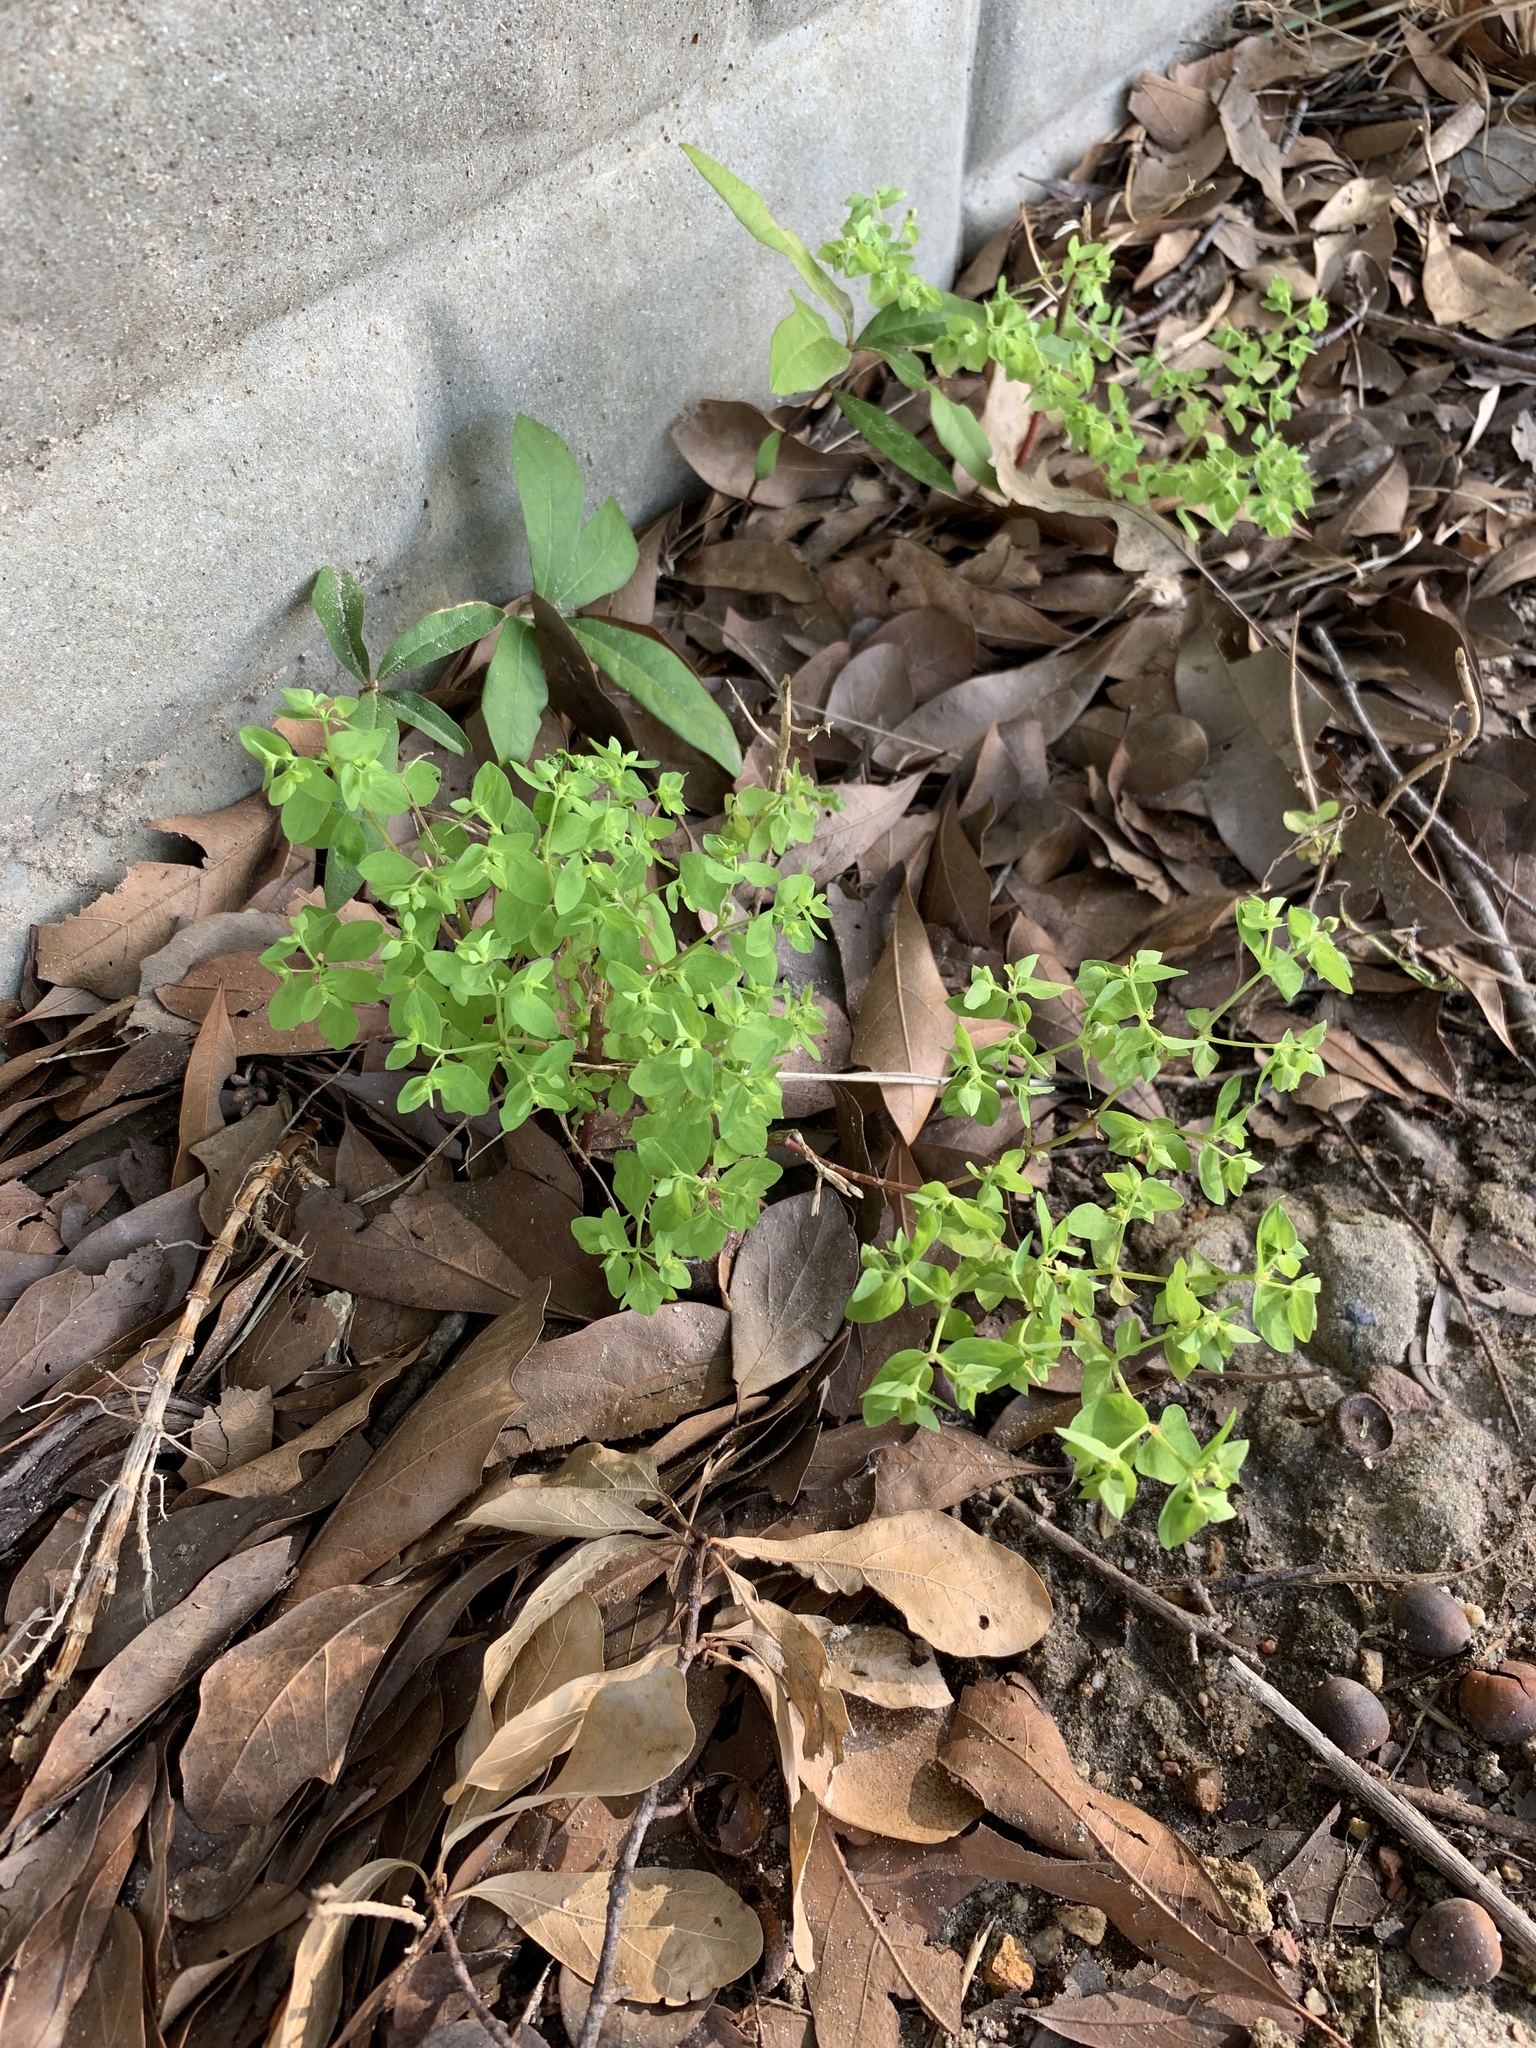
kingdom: Plantae
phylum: Tracheophyta
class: Magnoliopsida
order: Malpighiales
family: Euphorbiaceae
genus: Euphorbia
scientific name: Euphorbia peplus
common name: Petty spurge
